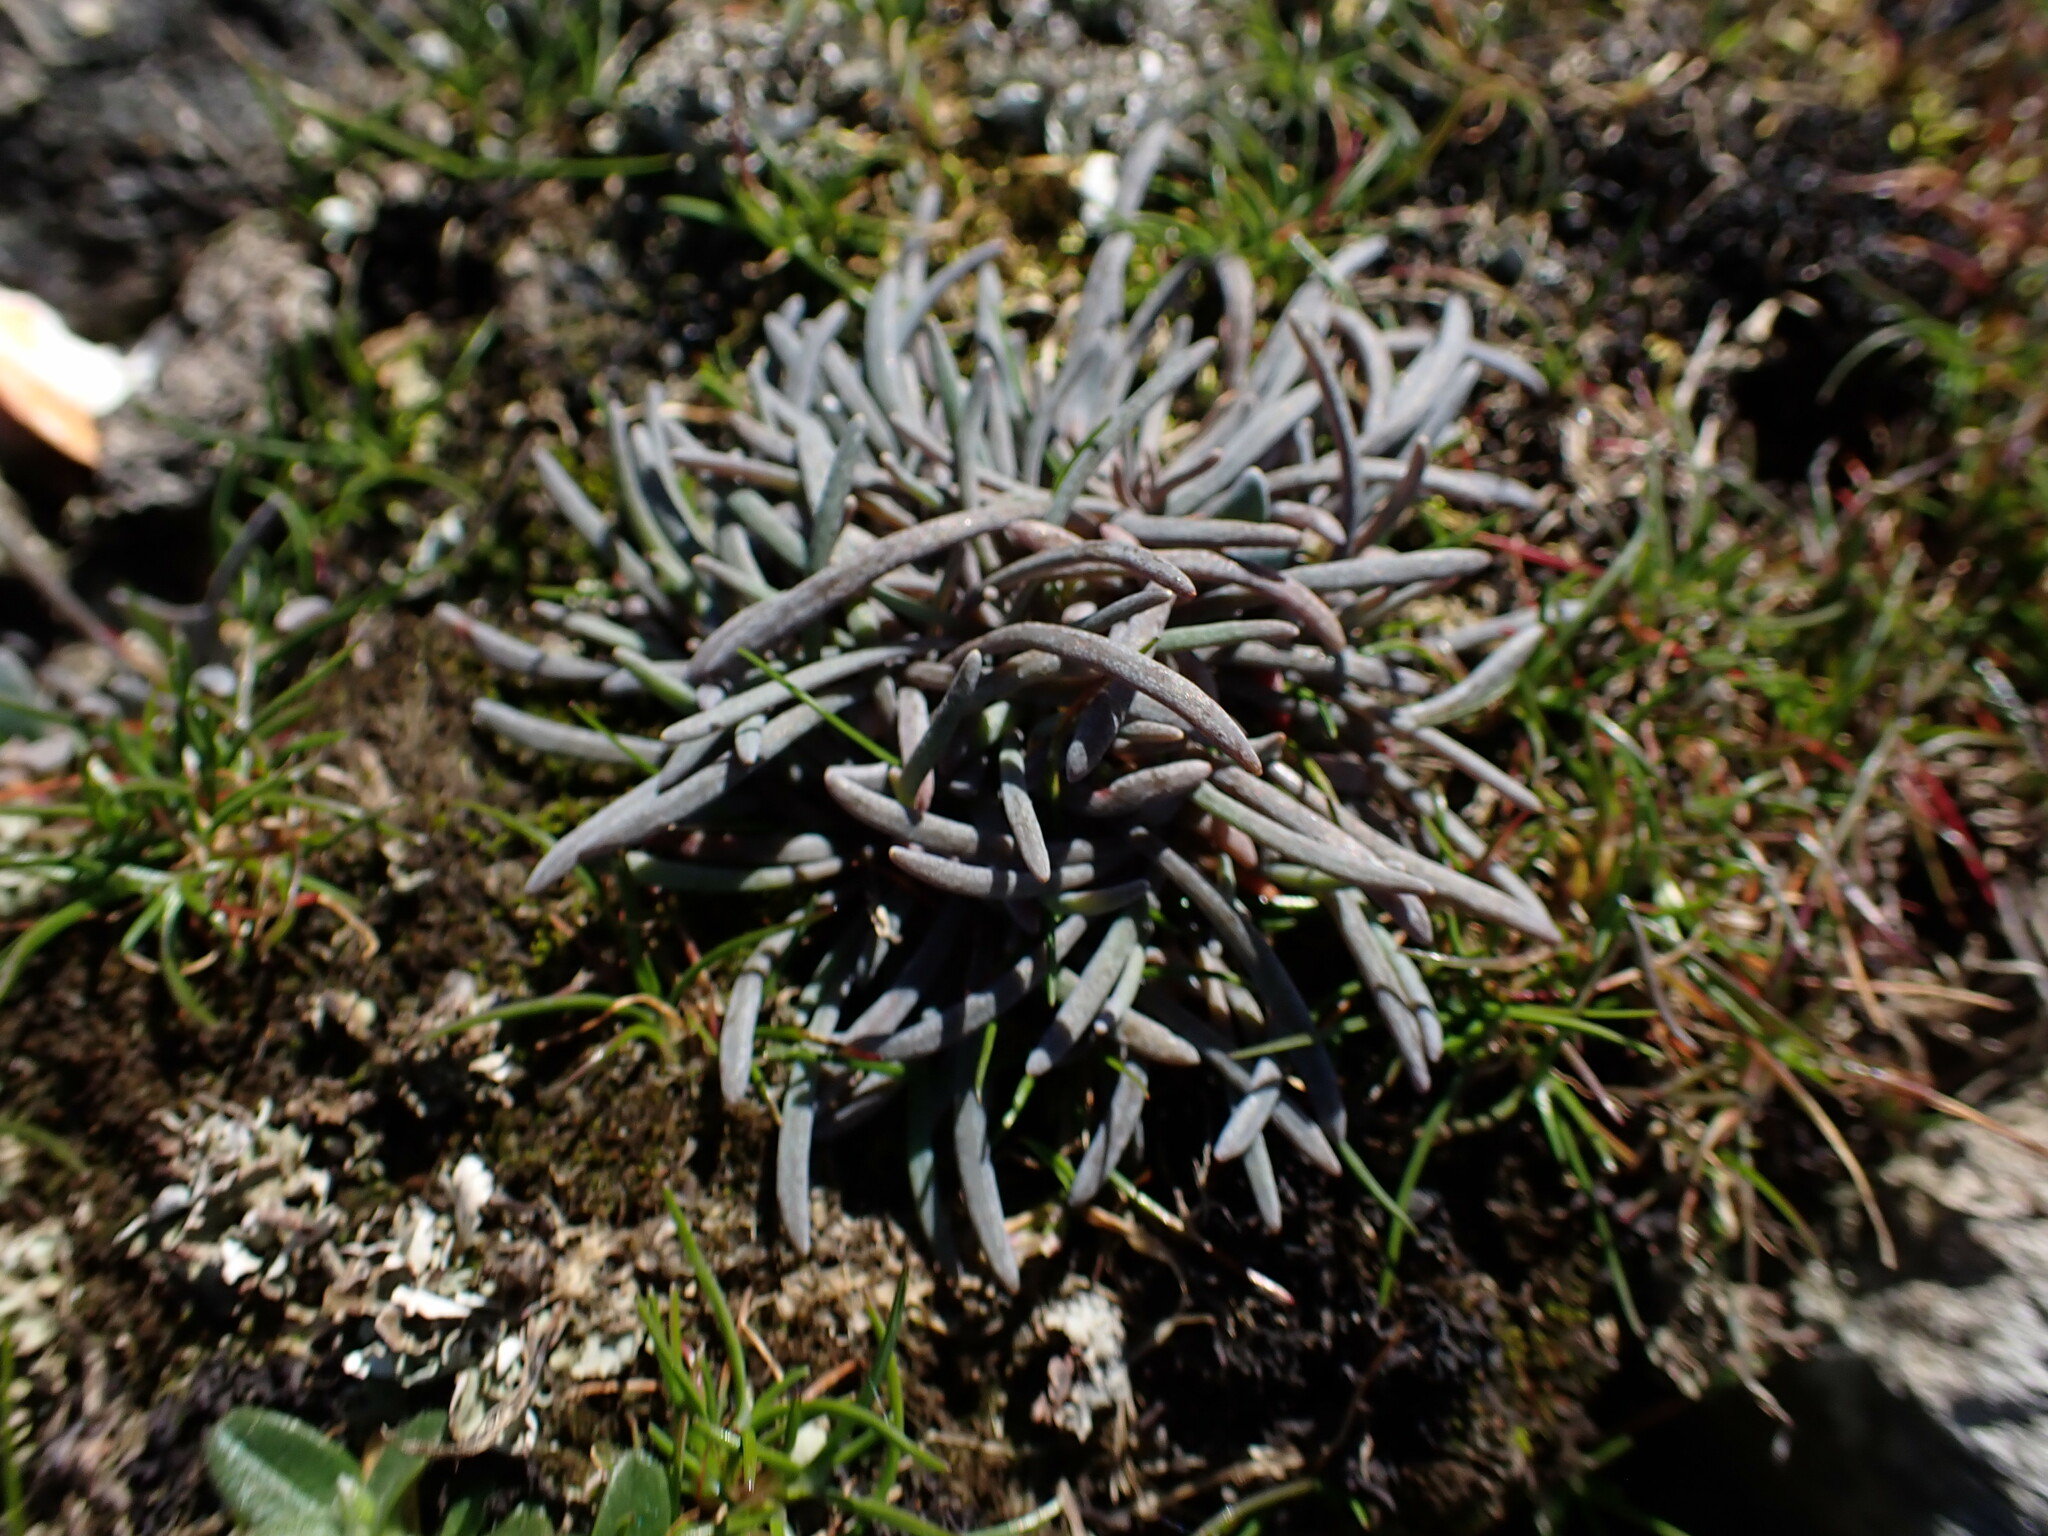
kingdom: Plantae
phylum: Tracheophyta
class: Magnoliopsida
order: Caryophyllales
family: Montiaceae
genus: Claytonia
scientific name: Claytonia exigua
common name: Pale spring beauty
